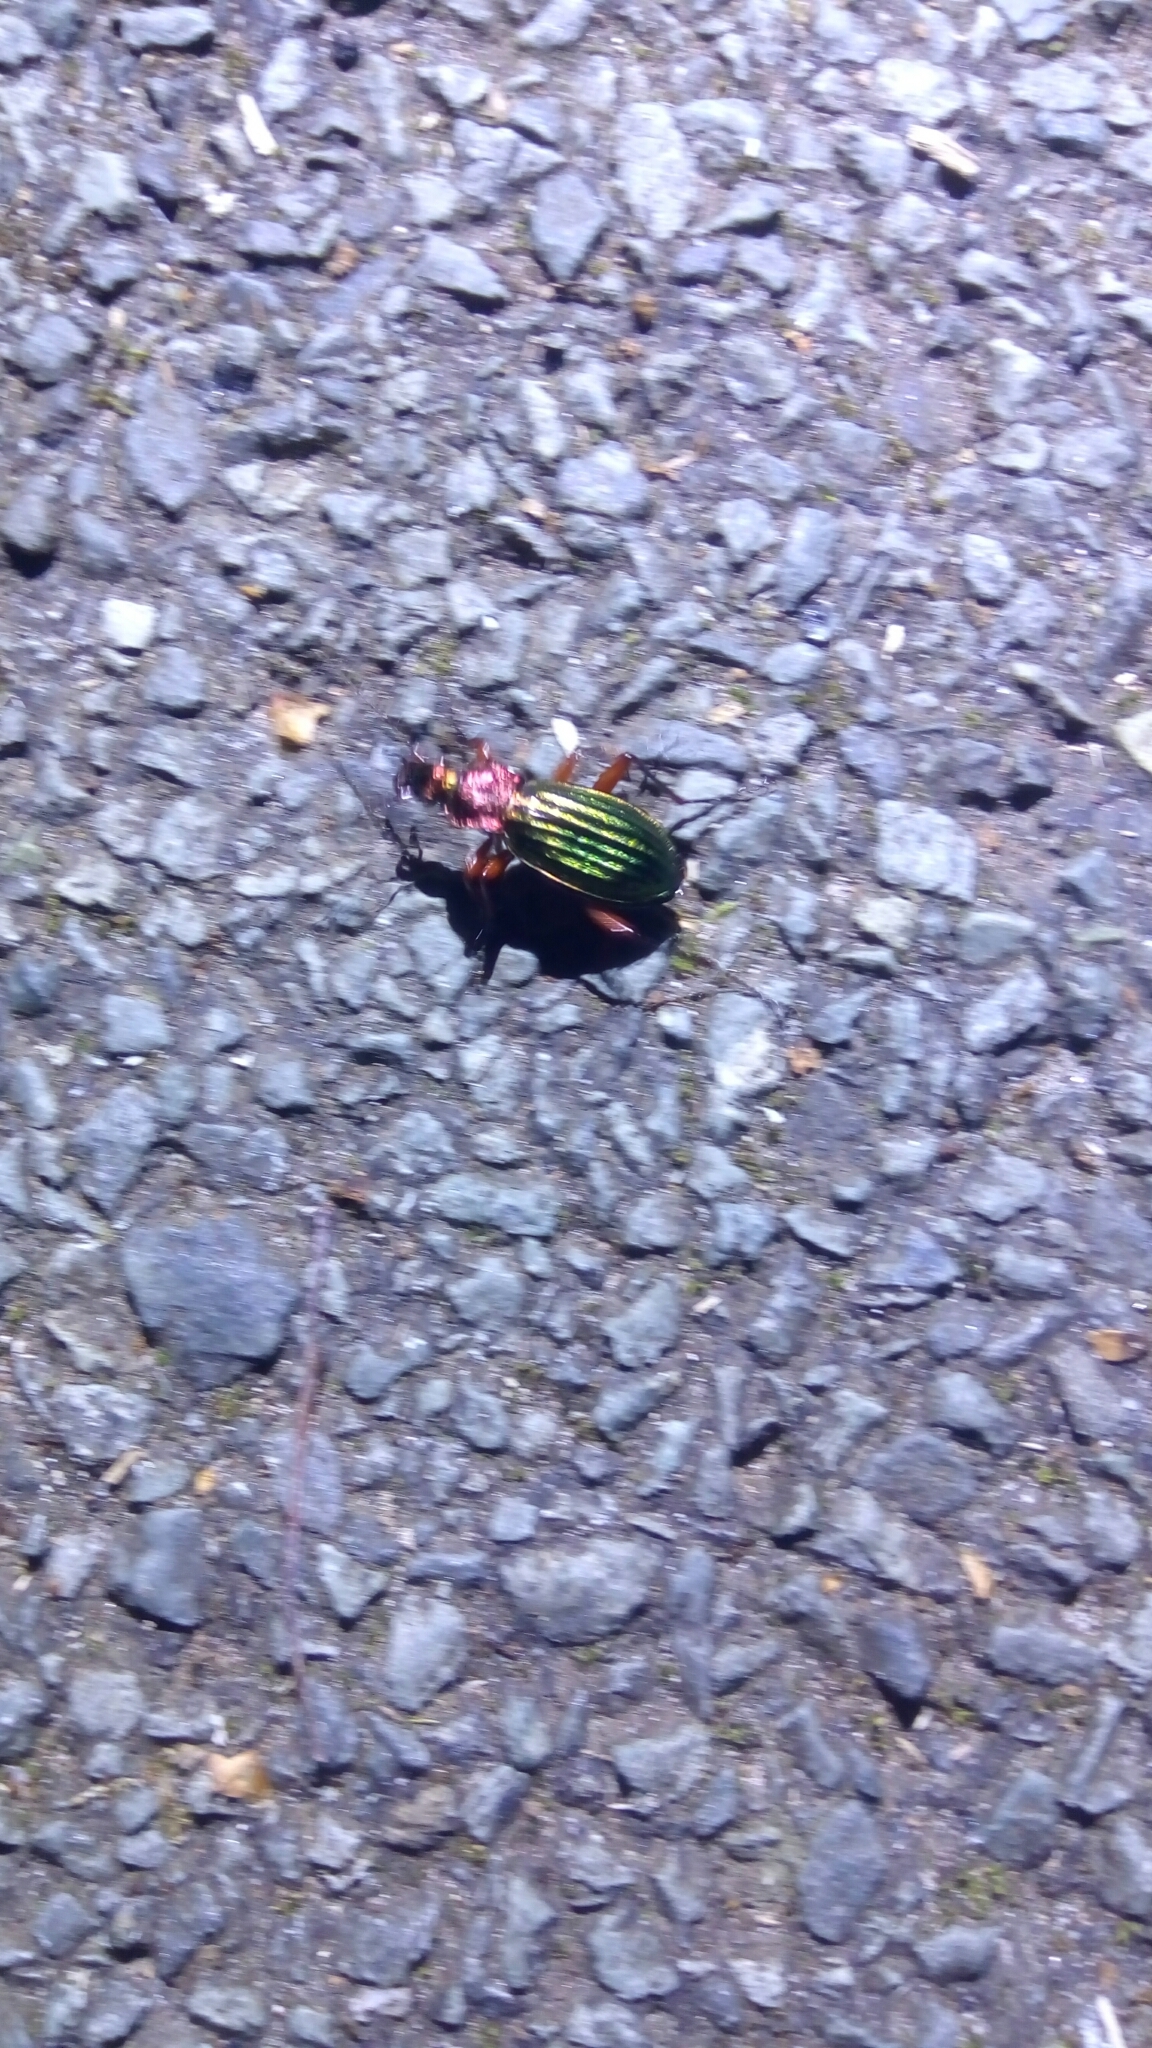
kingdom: Animalia
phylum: Arthropoda
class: Insecta
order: Coleoptera
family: Carabidae
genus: Carabus
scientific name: Carabus auronitens
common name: Carabus auronitens
